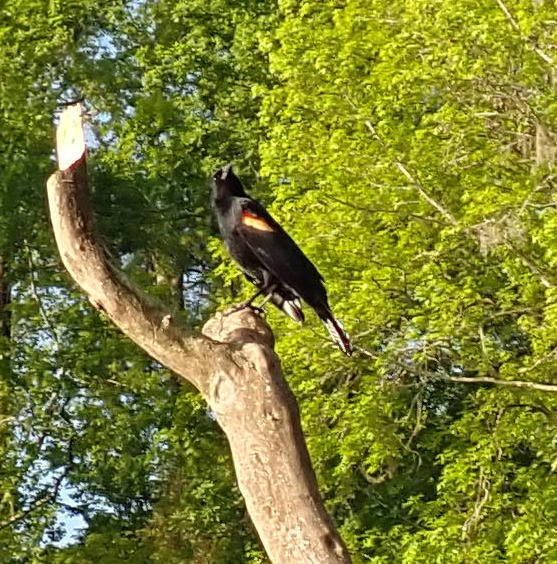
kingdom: Animalia
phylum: Chordata
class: Aves
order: Passeriformes
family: Icteridae
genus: Agelaius
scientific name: Agelaius phoeniceus
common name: Red-winged blackbird
